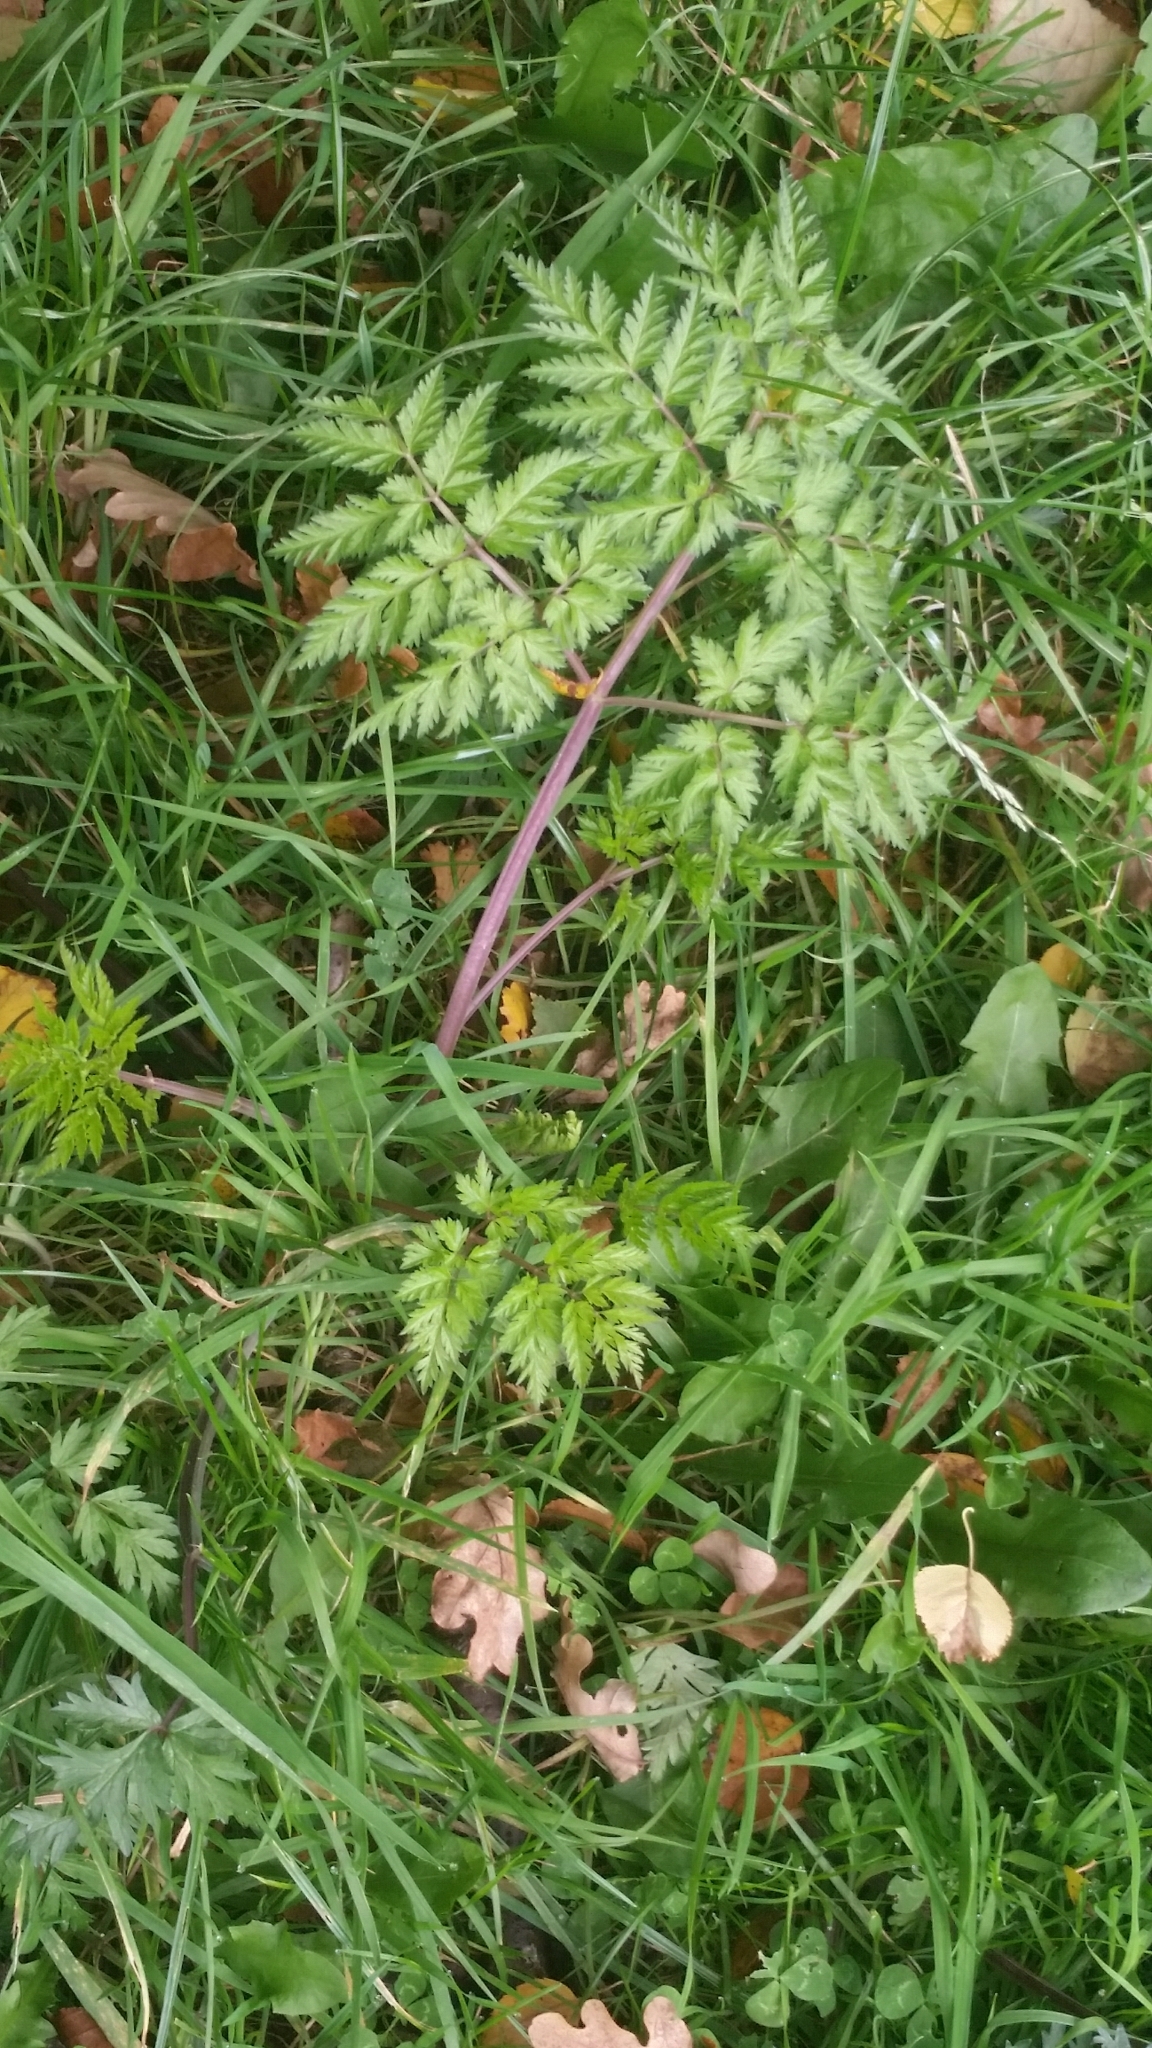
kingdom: Plantae
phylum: Tracheophyta
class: Magnoliopsida
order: Apiales
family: Apiaceae
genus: Anthriscus
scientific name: Anthriscus sylvestris
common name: Cow parsley
